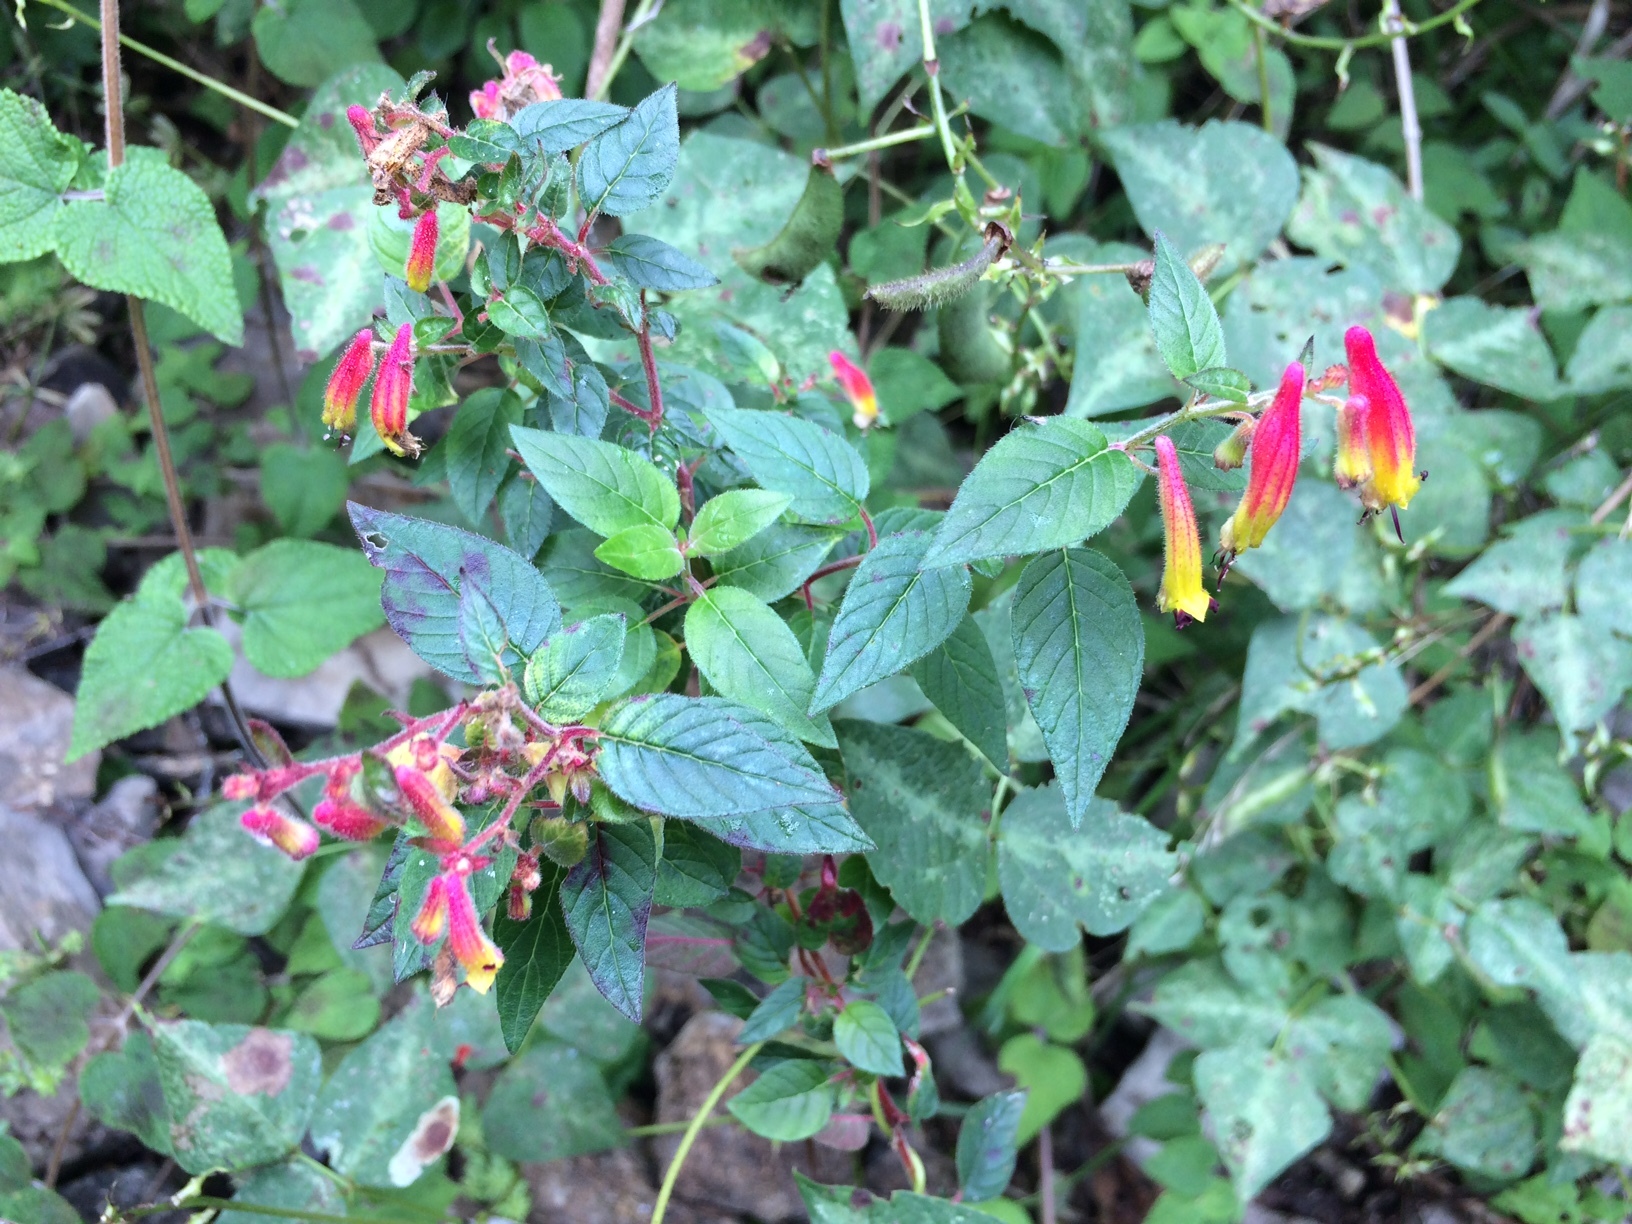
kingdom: Plantae
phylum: Tracheophyta
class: Magnoliopsida
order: Myrtales
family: Lythraceae
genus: Cuphea
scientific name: Cuphea cyanea
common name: Black-eyed cuphea
